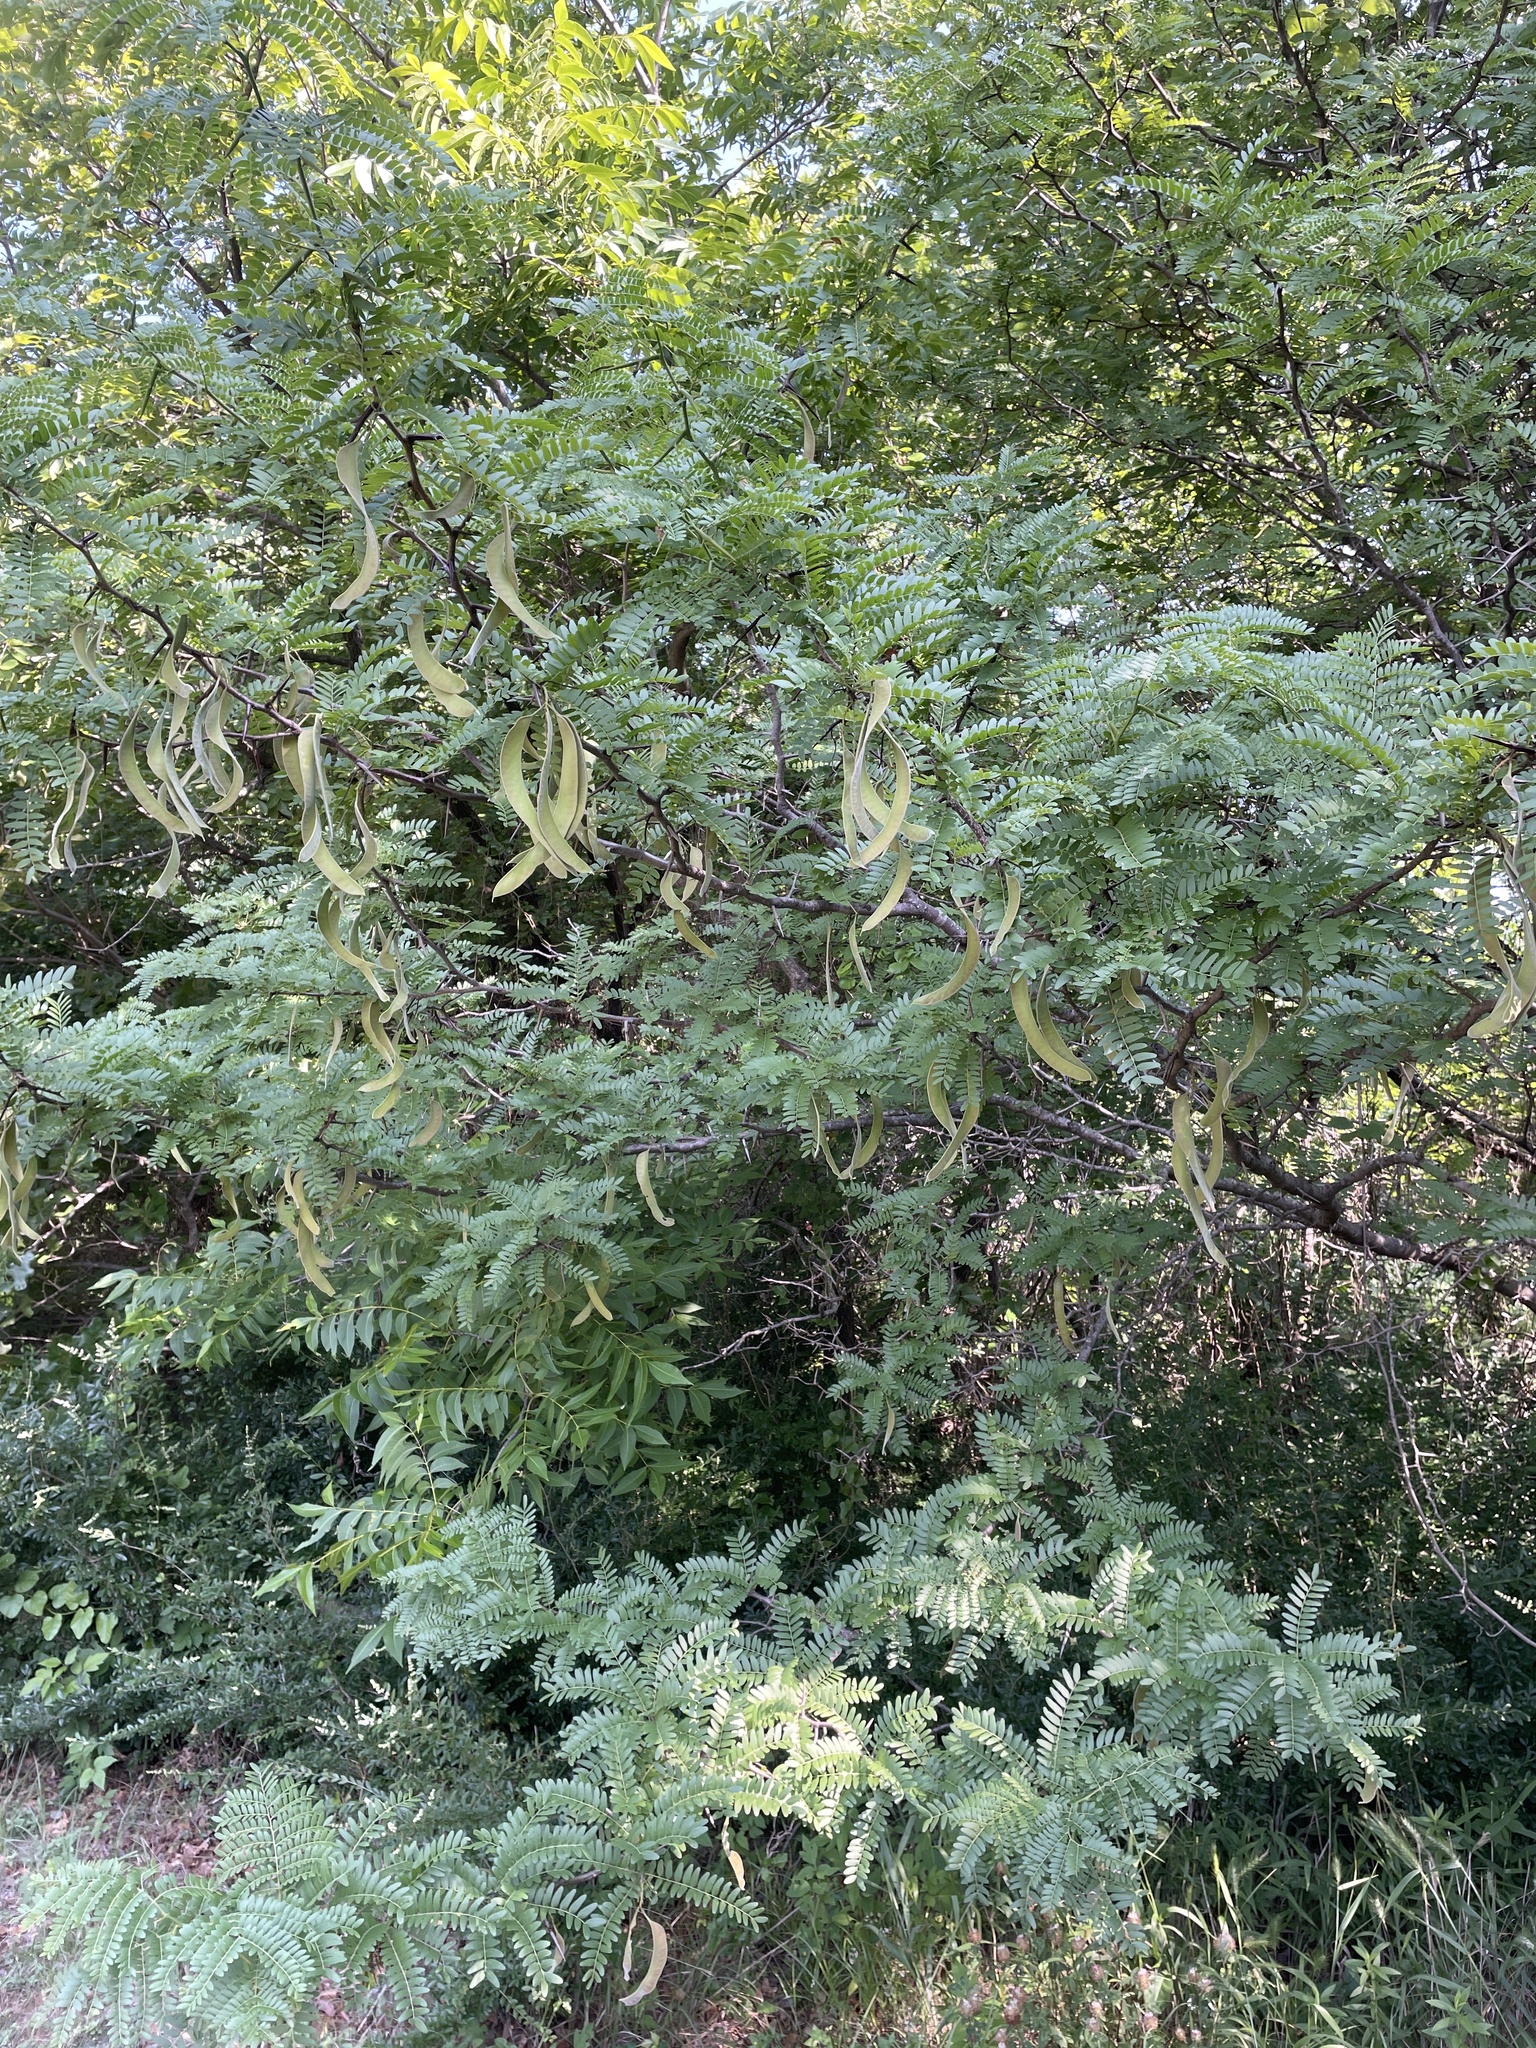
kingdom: Plantae
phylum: Tracheophyta
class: Magnoliopsida
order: Fabales
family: Fabaceae
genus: Gleditsia
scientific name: Gleditsia triacanthos
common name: Common honeylocust
